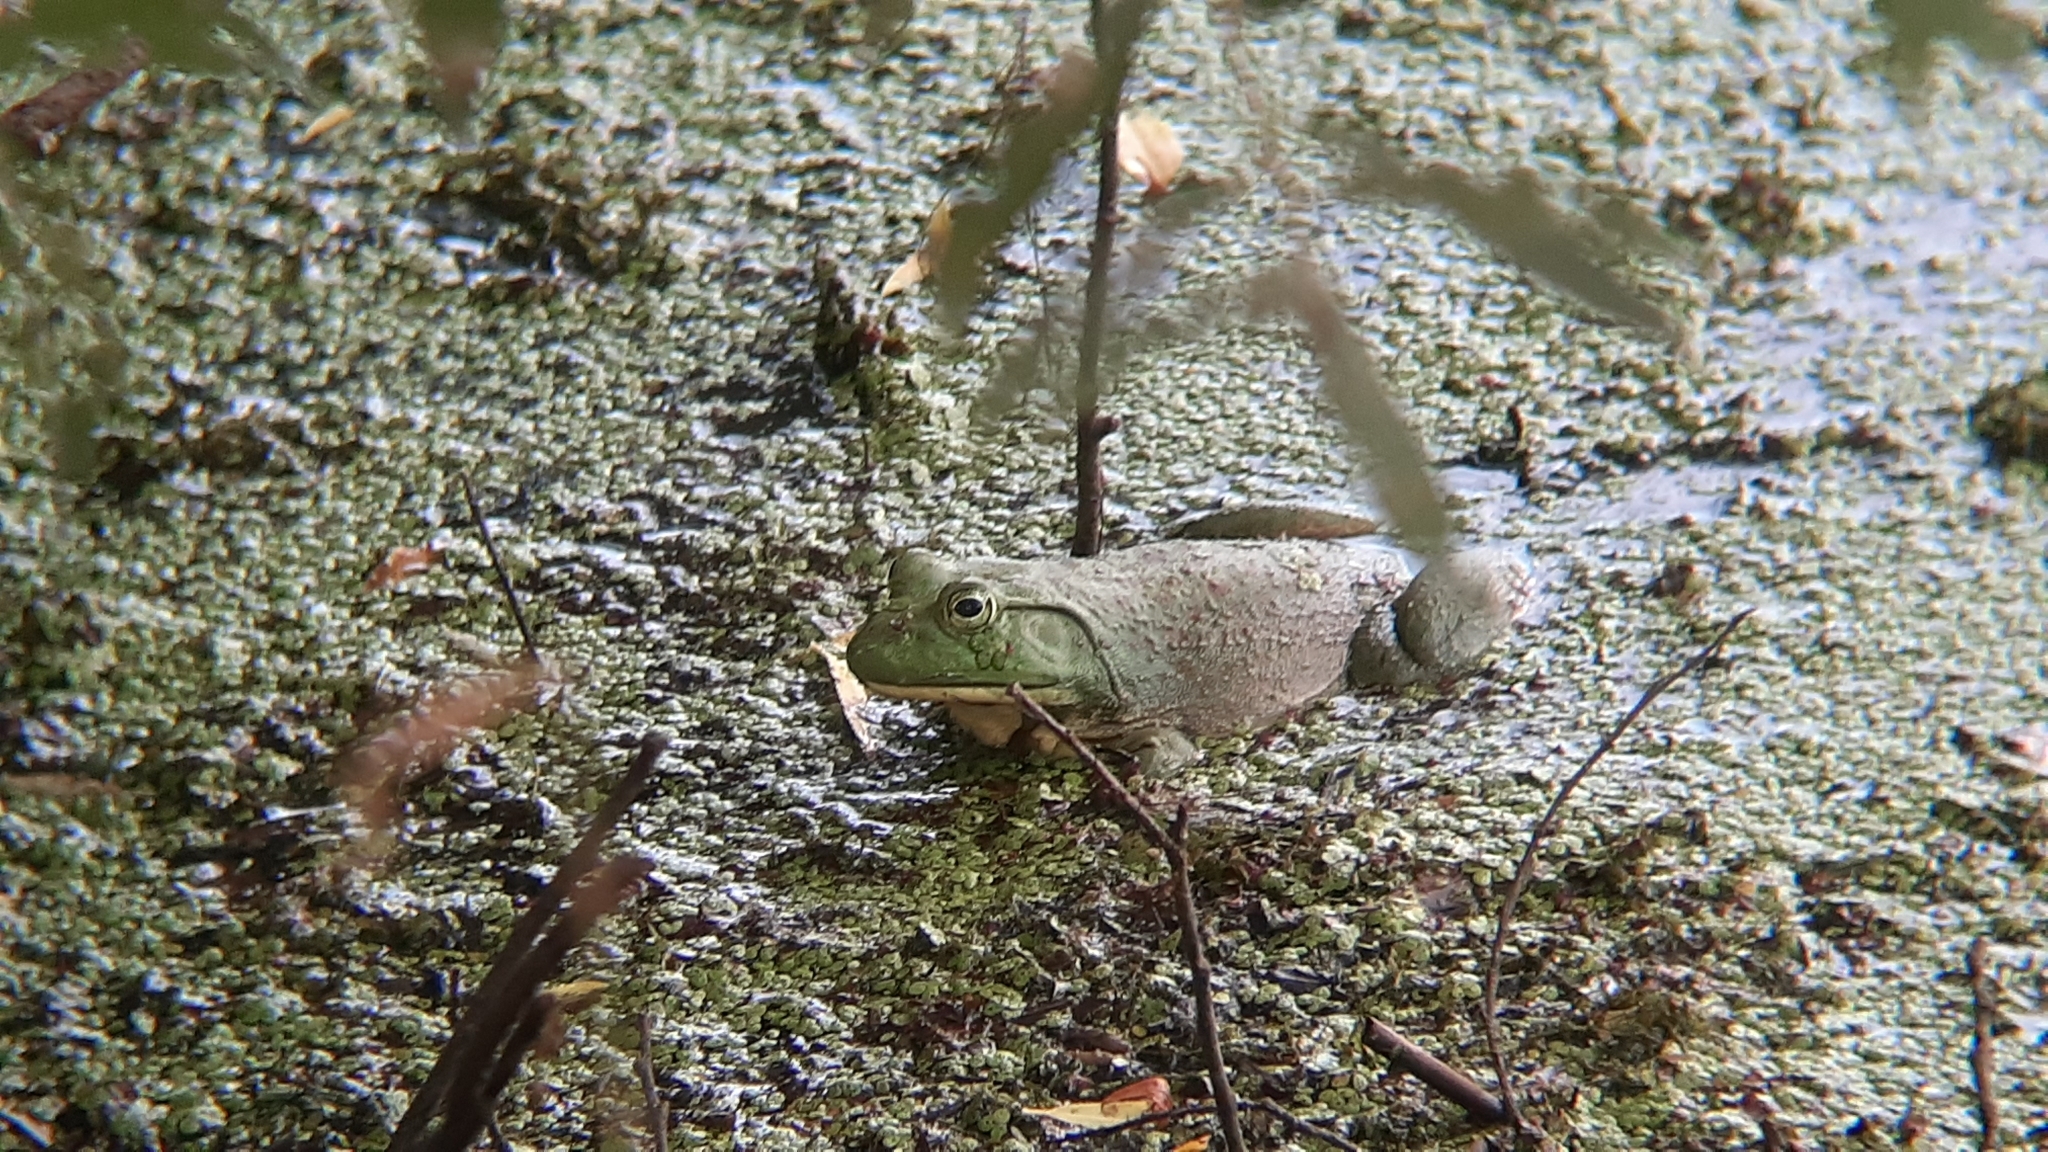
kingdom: Animalia
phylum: Chordata
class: Amphibia
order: Anura
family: Ranidae
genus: Lithobates
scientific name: Lithobates catesbeianus
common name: American bullfrog
